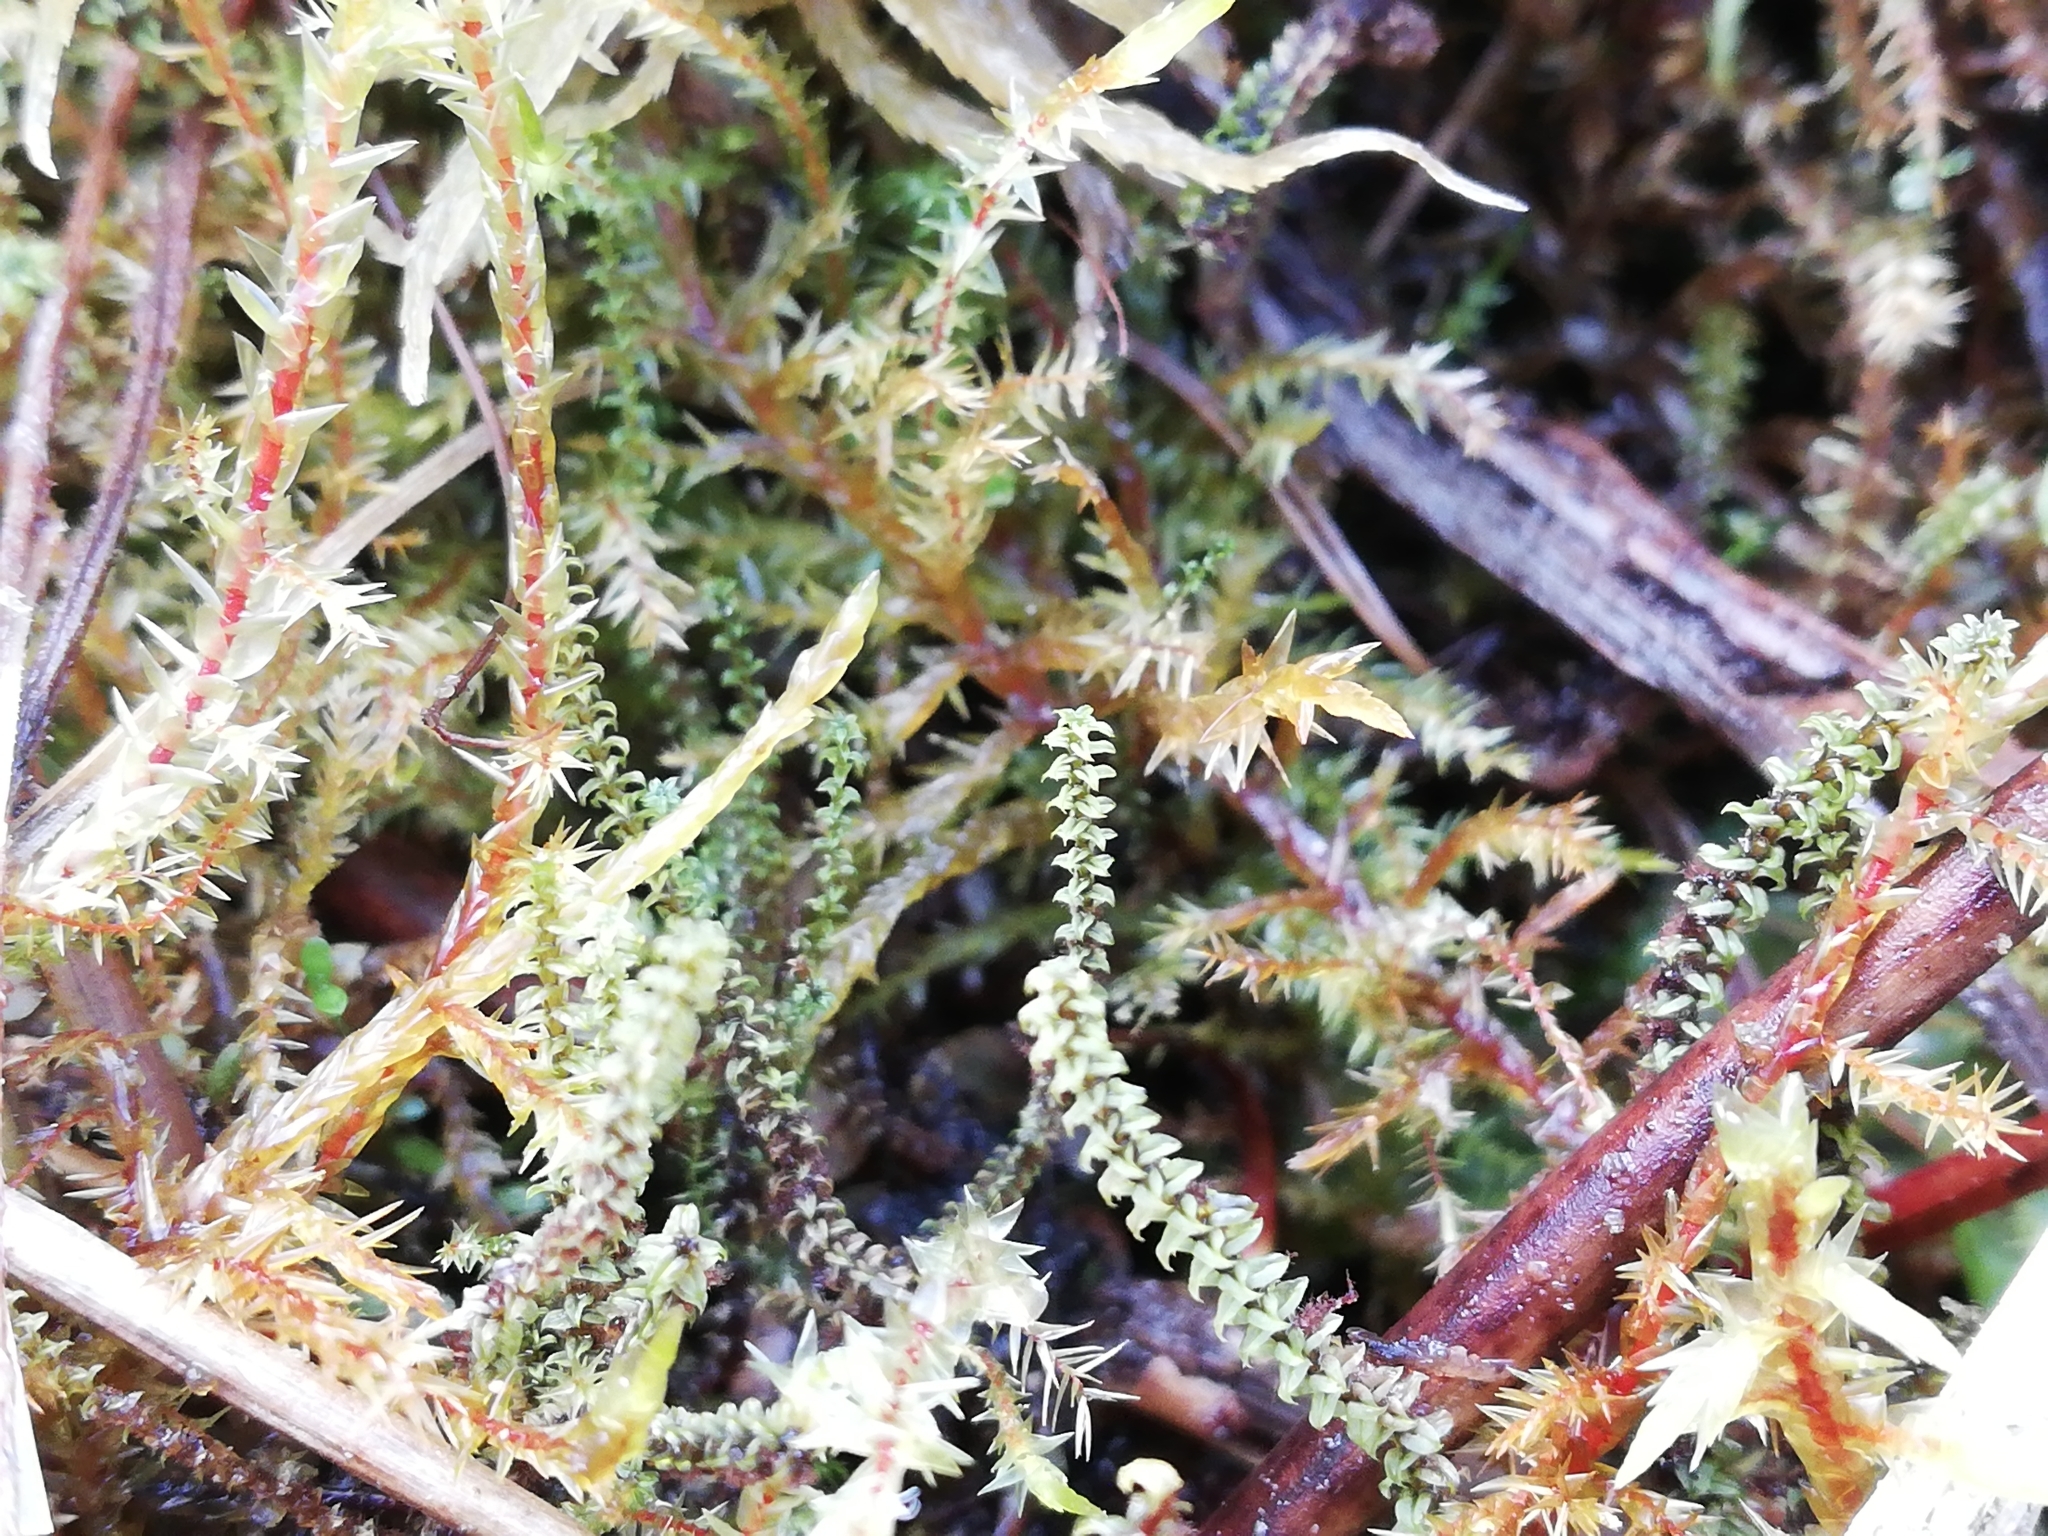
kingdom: Plantae
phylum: Bryophyta
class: Bryopsida
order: Splachnales
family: Meesiaceae
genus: Paludella
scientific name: Paludella squarrosa
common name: Tufted fen moss
